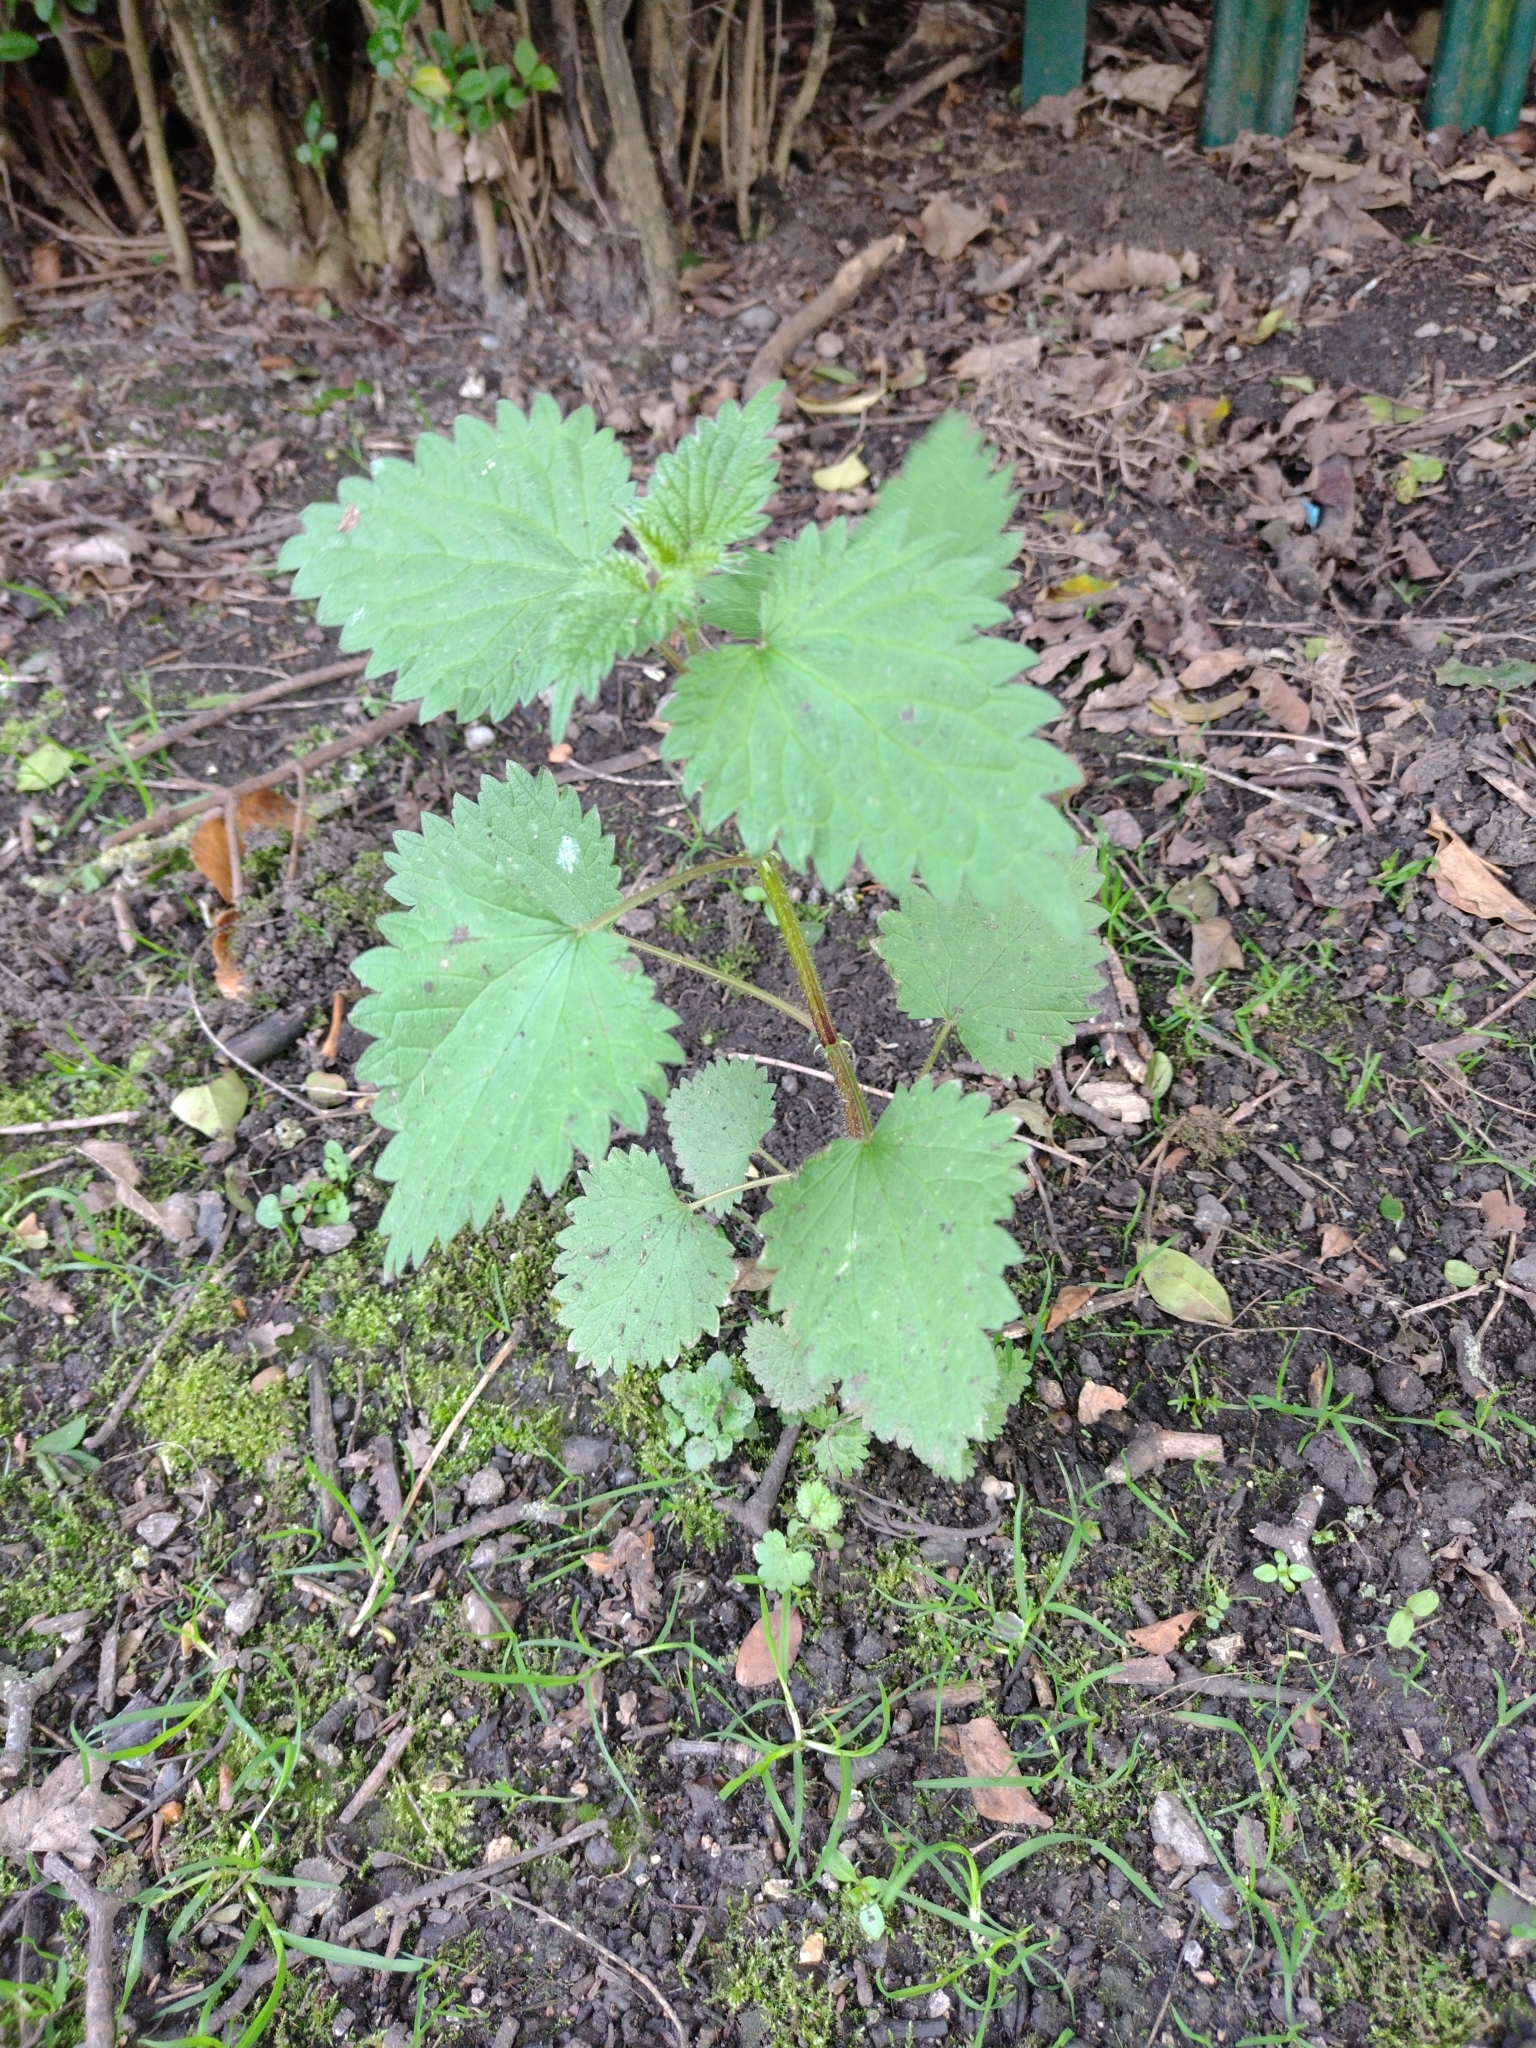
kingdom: Plantae
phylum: Tracheophyta
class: Magnoliopsida
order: Rosales
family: Urticaceae
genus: Urtica
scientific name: Urtica dioica
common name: Common nettle
